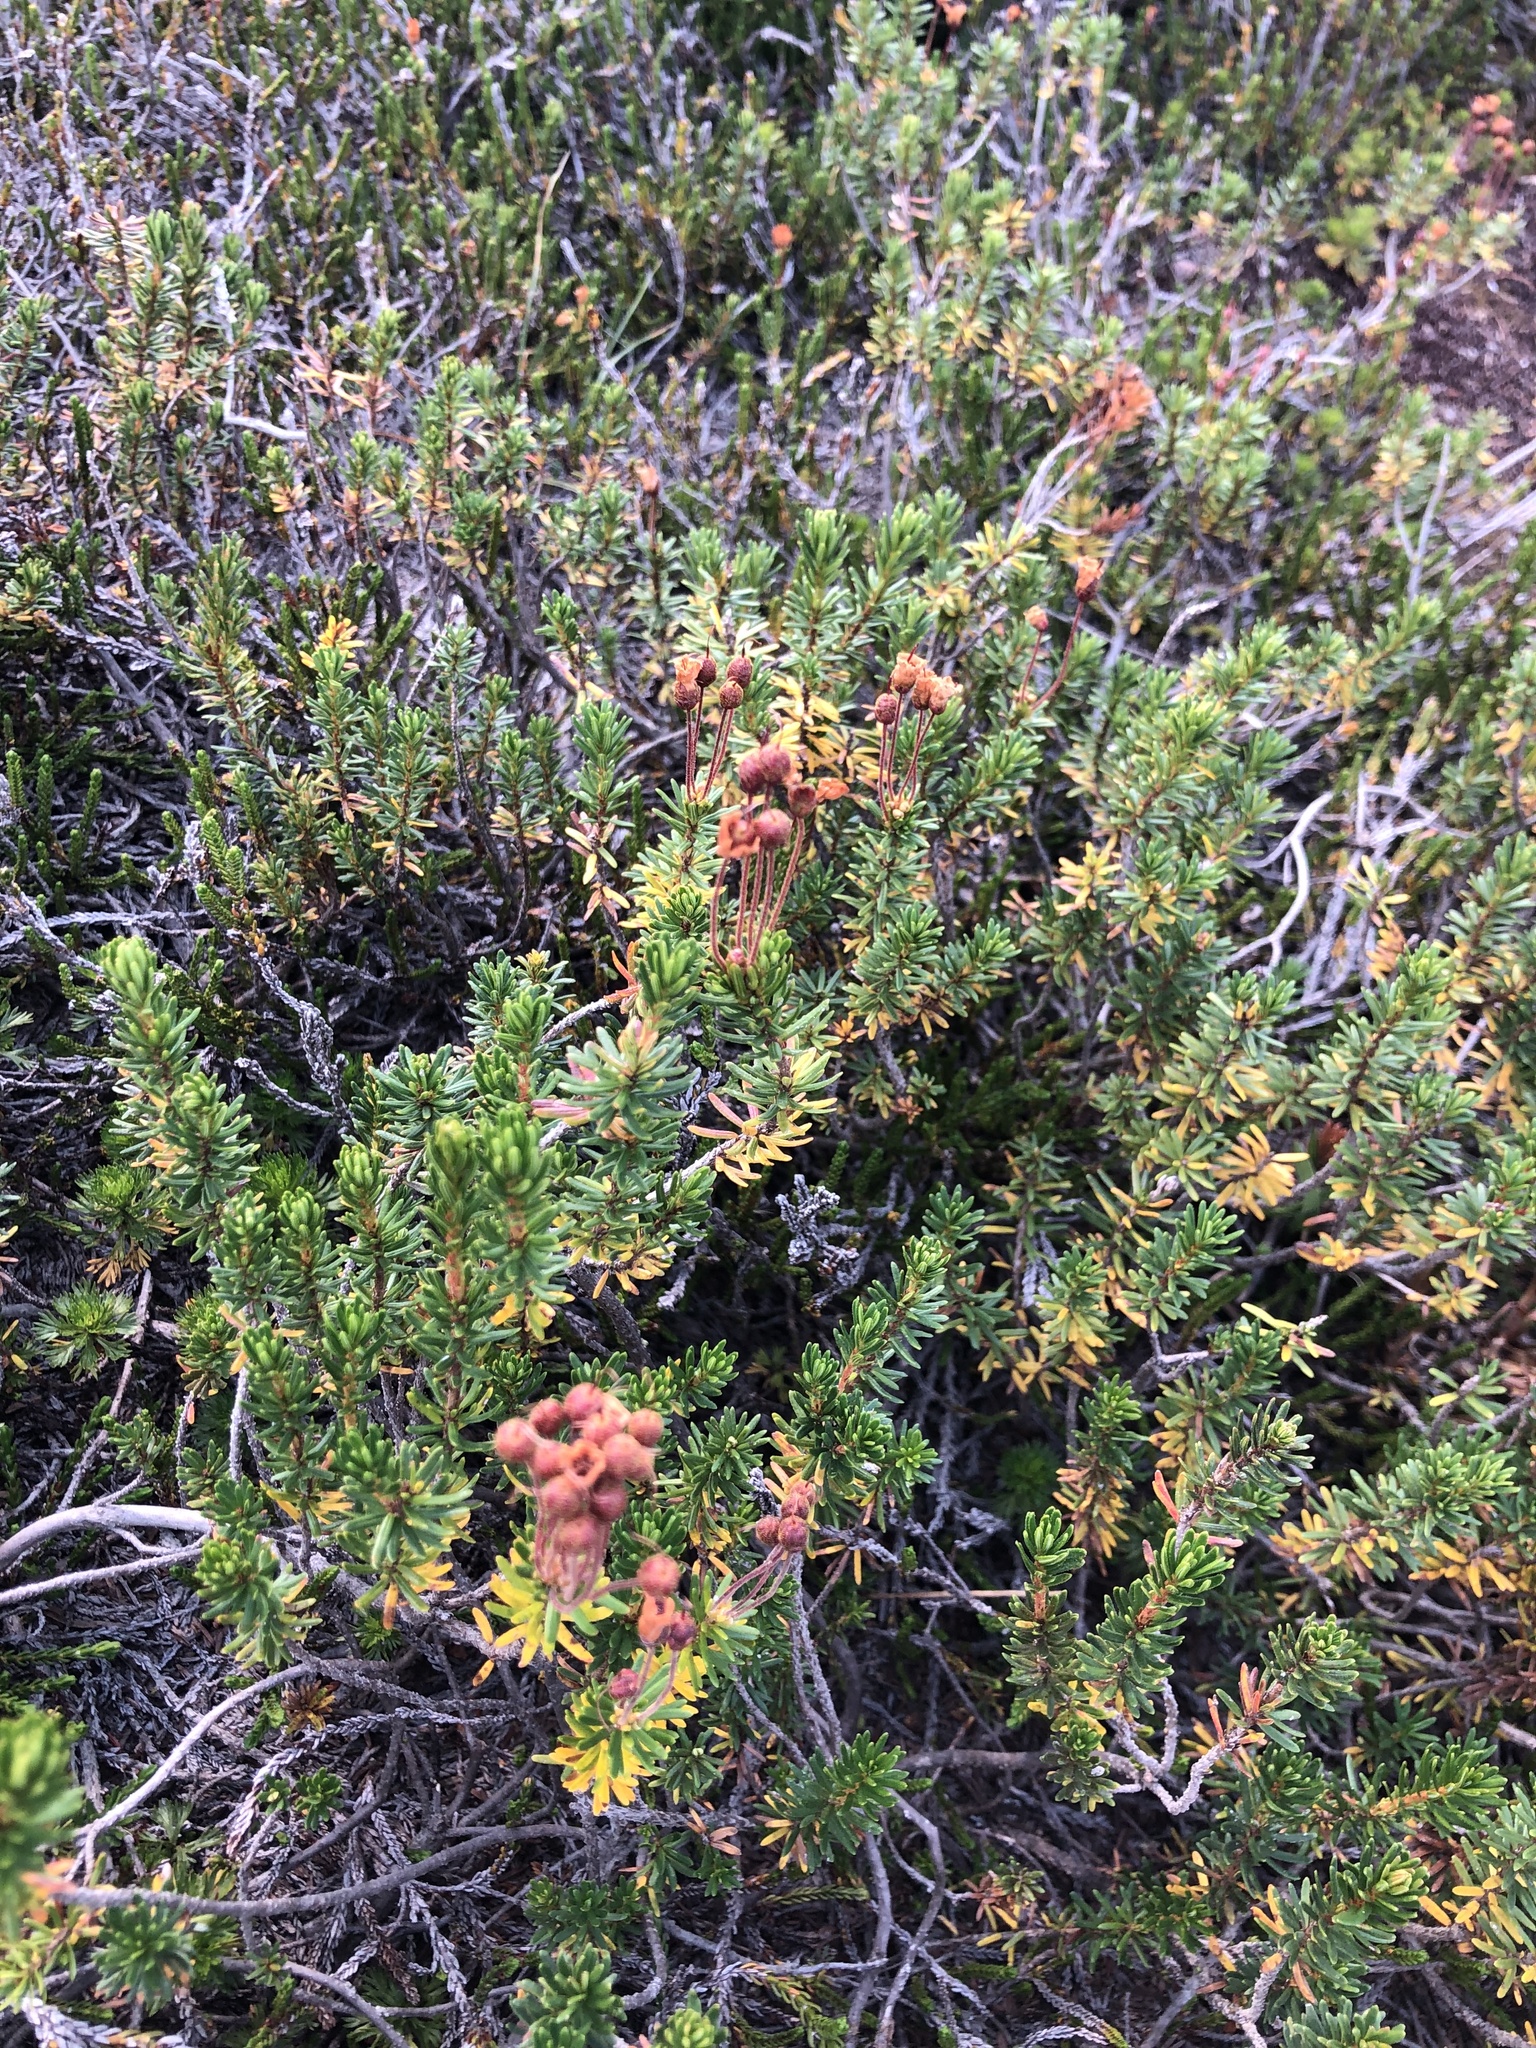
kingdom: Plantae
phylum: Tracheophyta
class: Magnoliopsida
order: Ericales
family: Ericaceae
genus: Phyllodoce
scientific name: Phyllodoce empetriformis
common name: Pink mountain heather
